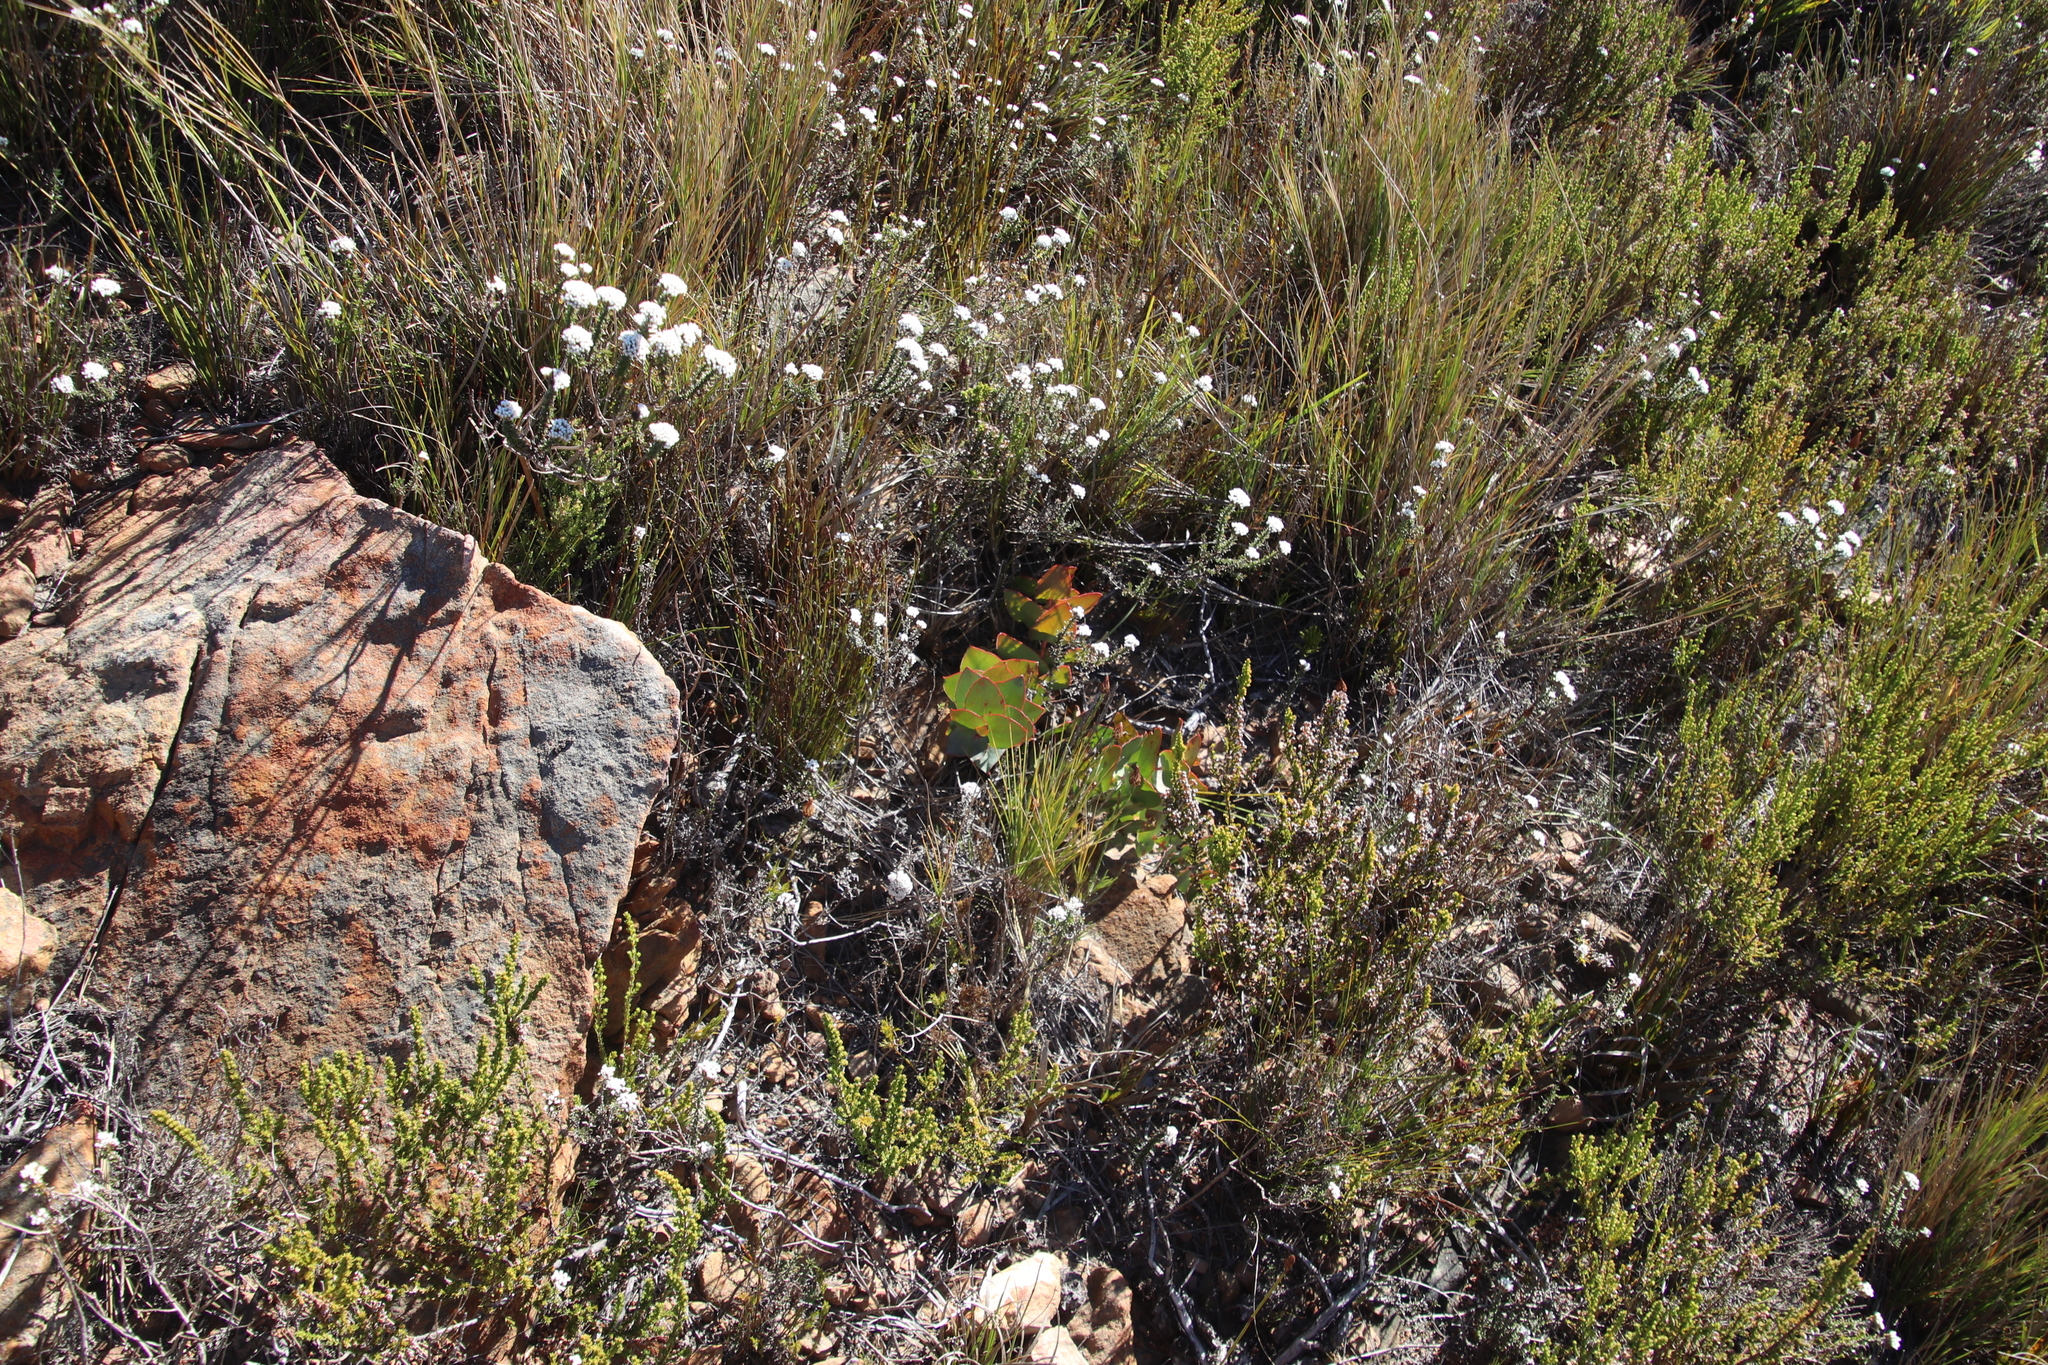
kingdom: Plantae
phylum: Tracheophyta
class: Magnoliopsida
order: Proteales
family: Proteaceae
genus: Protea
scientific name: Protea amplexicaulis
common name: Clasping-leaf sugarbush
